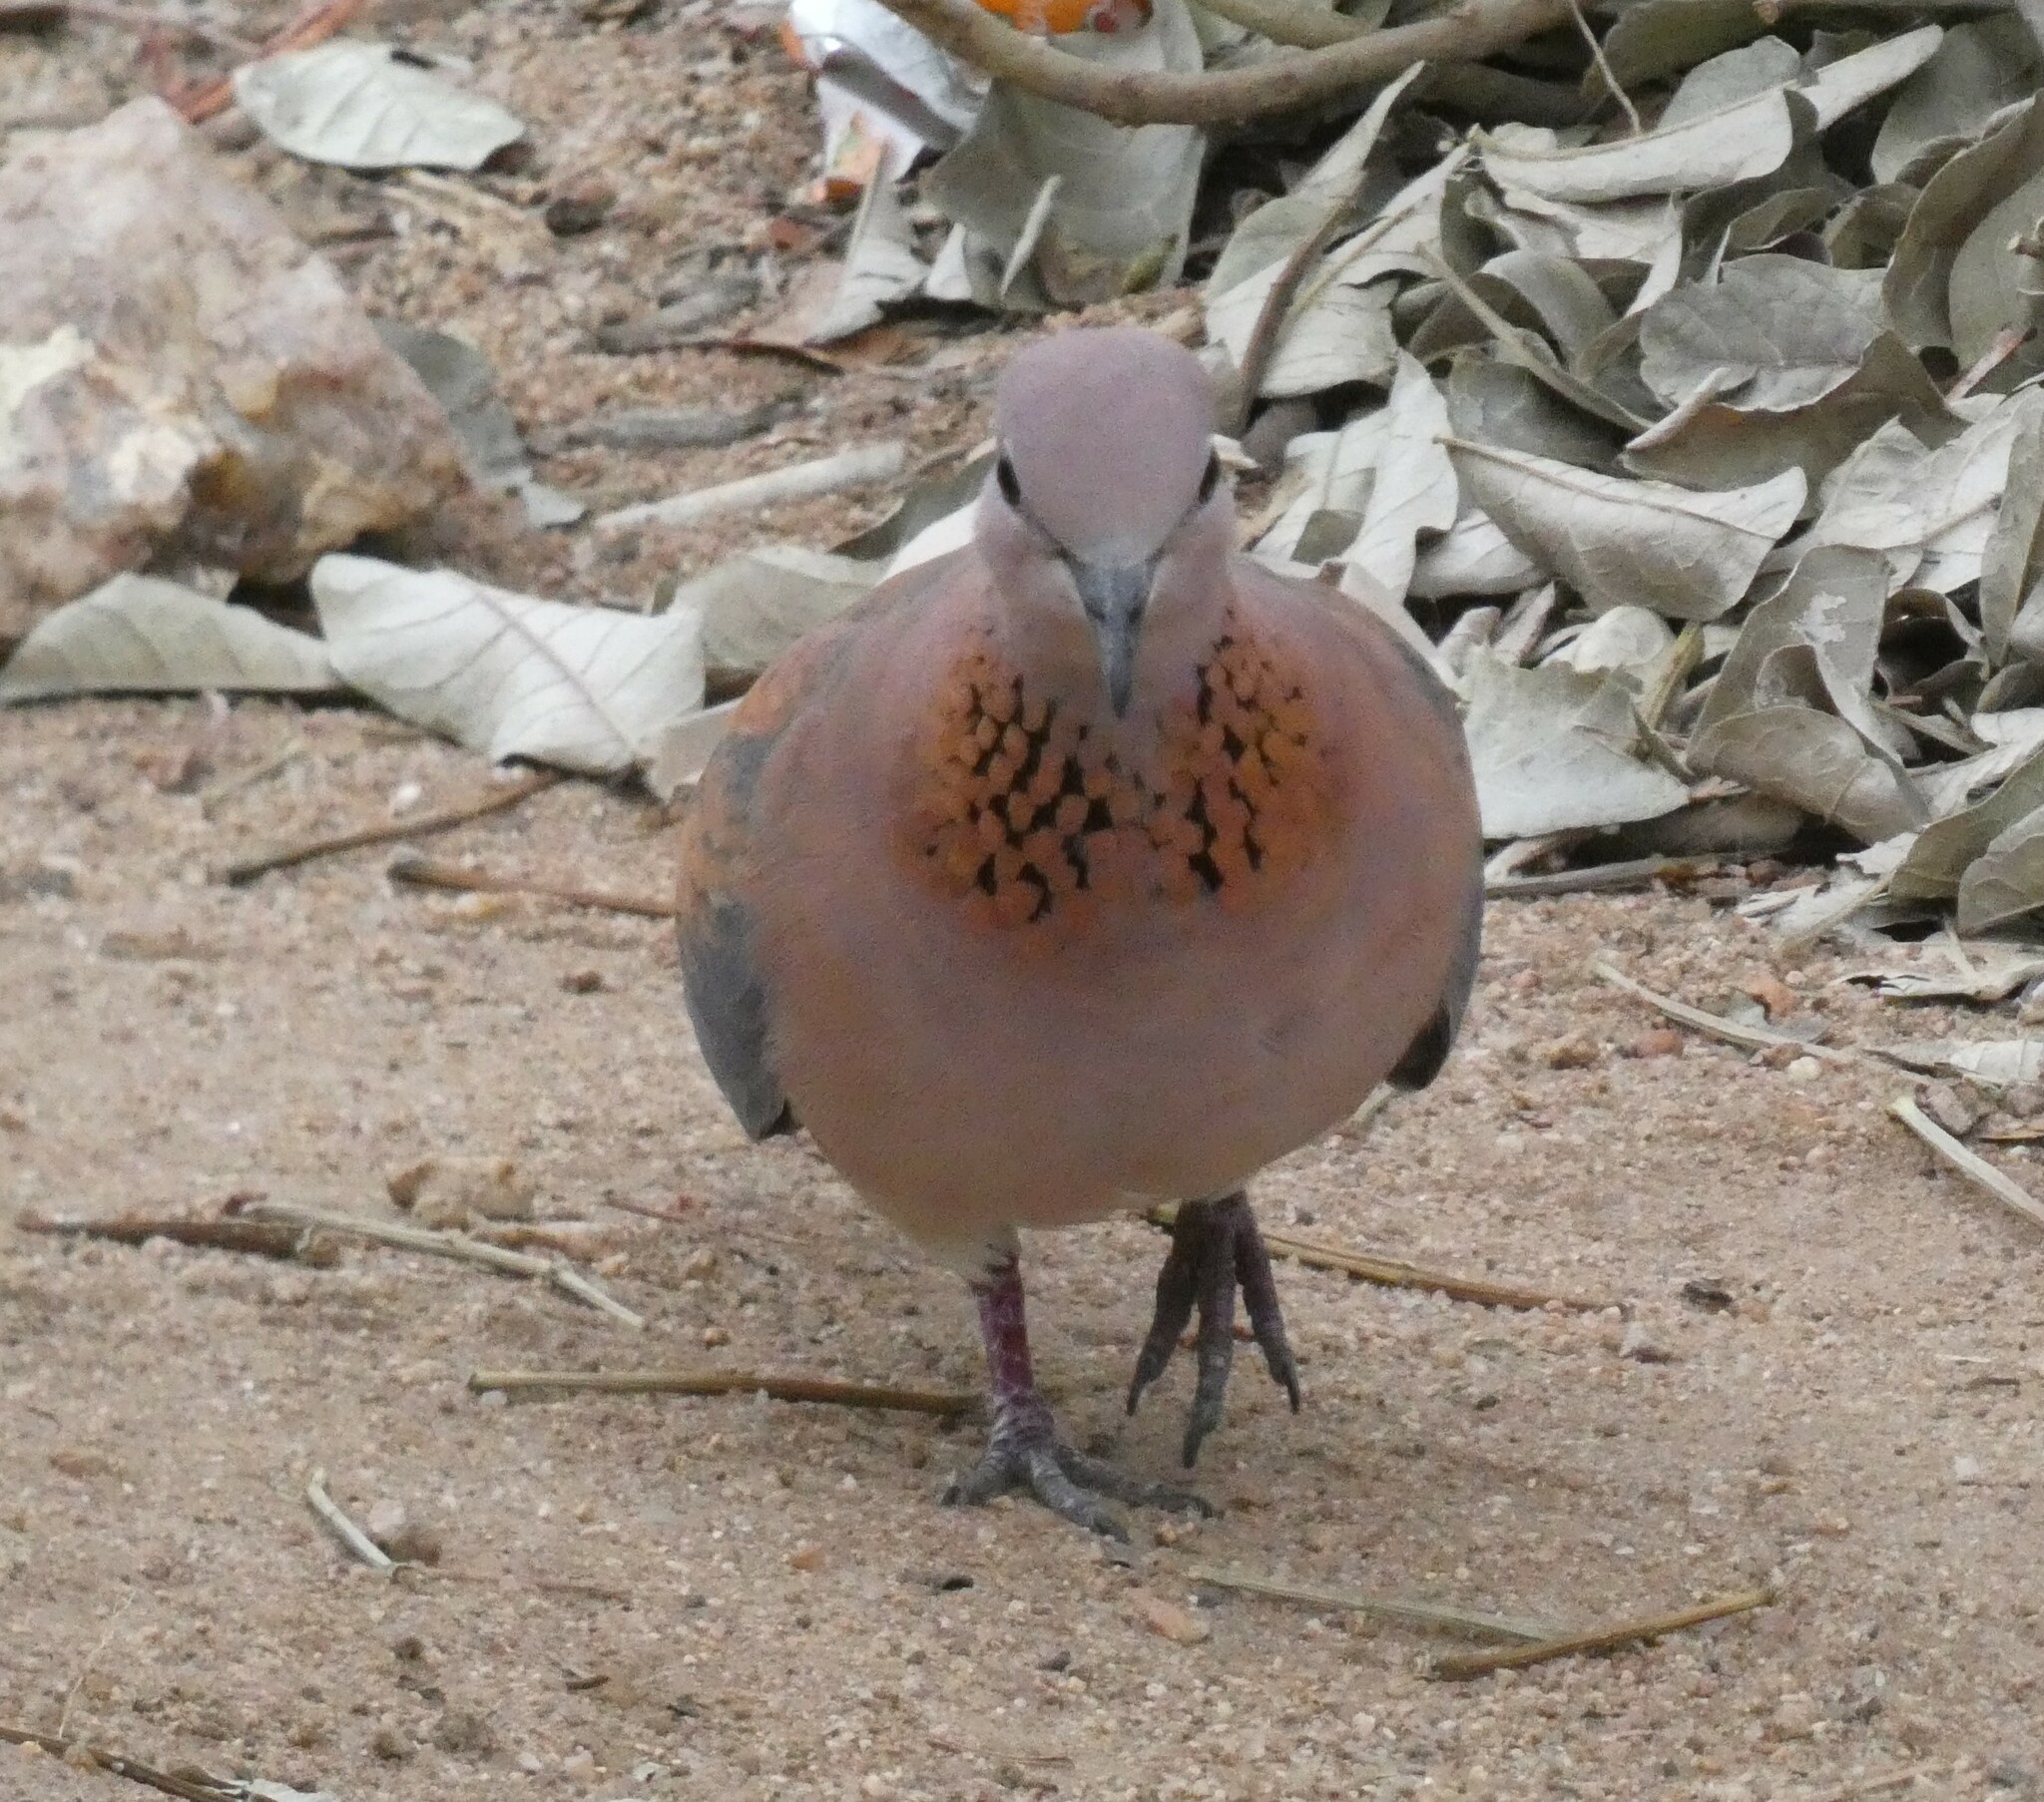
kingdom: Animalia
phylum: Chordata
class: Aves
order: Columbiformes
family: Columbidae
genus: Spilopelia
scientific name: Spilopelia senegalensis
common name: Laughing dove
